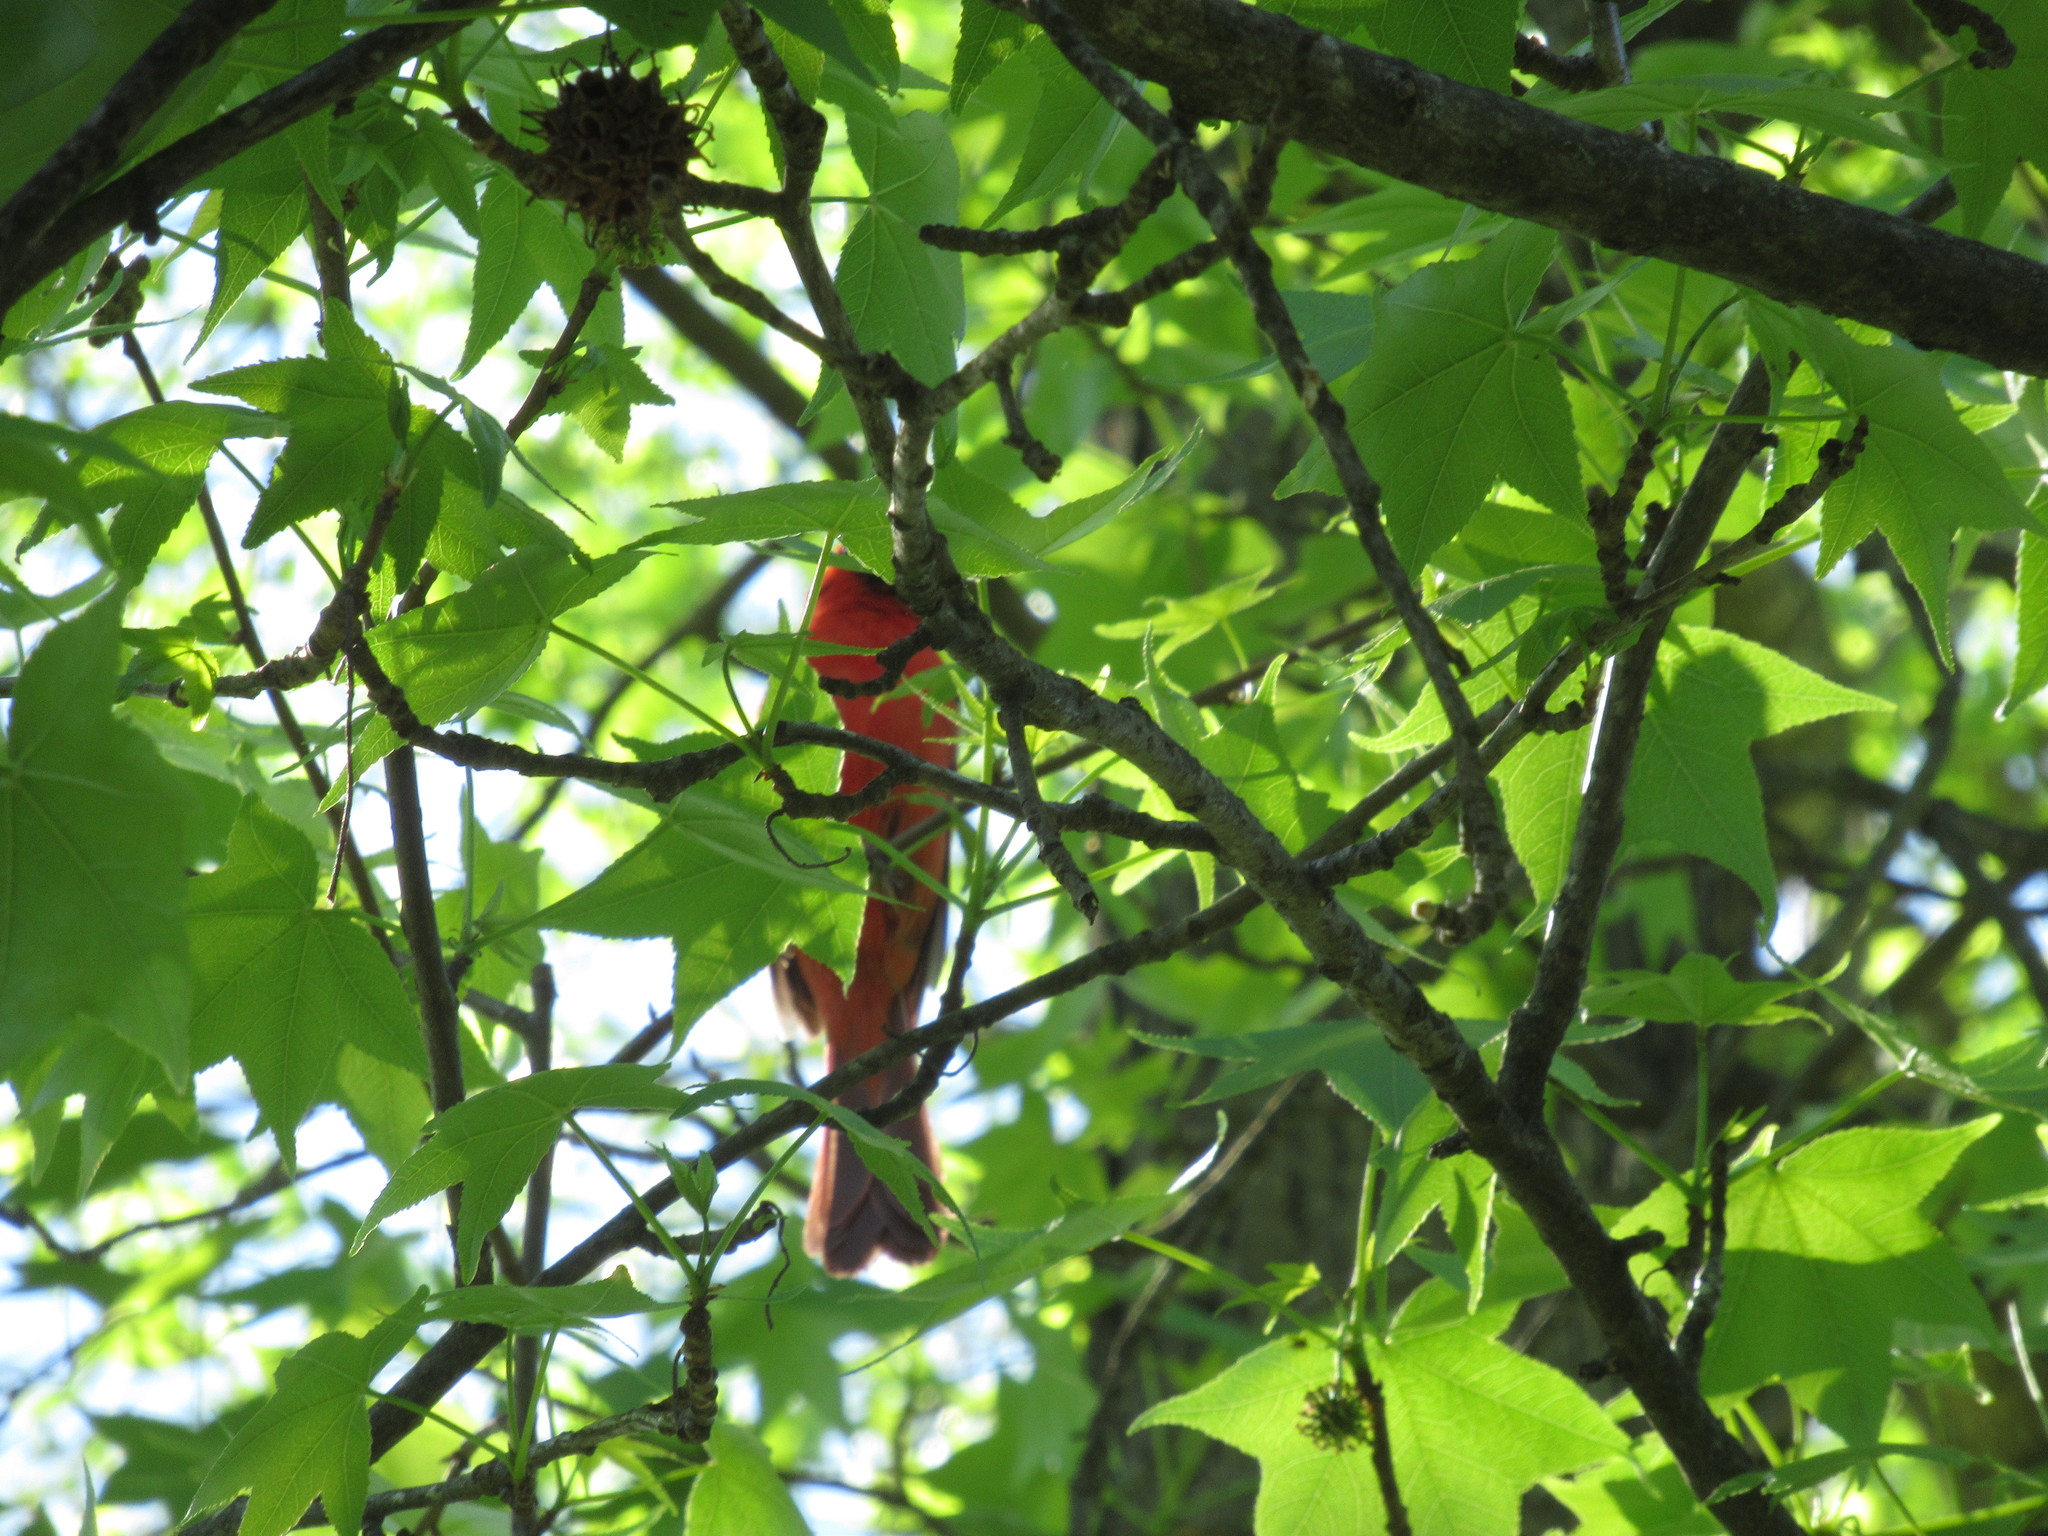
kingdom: Animalia
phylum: Chordata
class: Aves
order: Passeriformes
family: Cardinalidae
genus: Cardinalis
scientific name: Cardinalis cardinalis
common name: Northern cardinal
